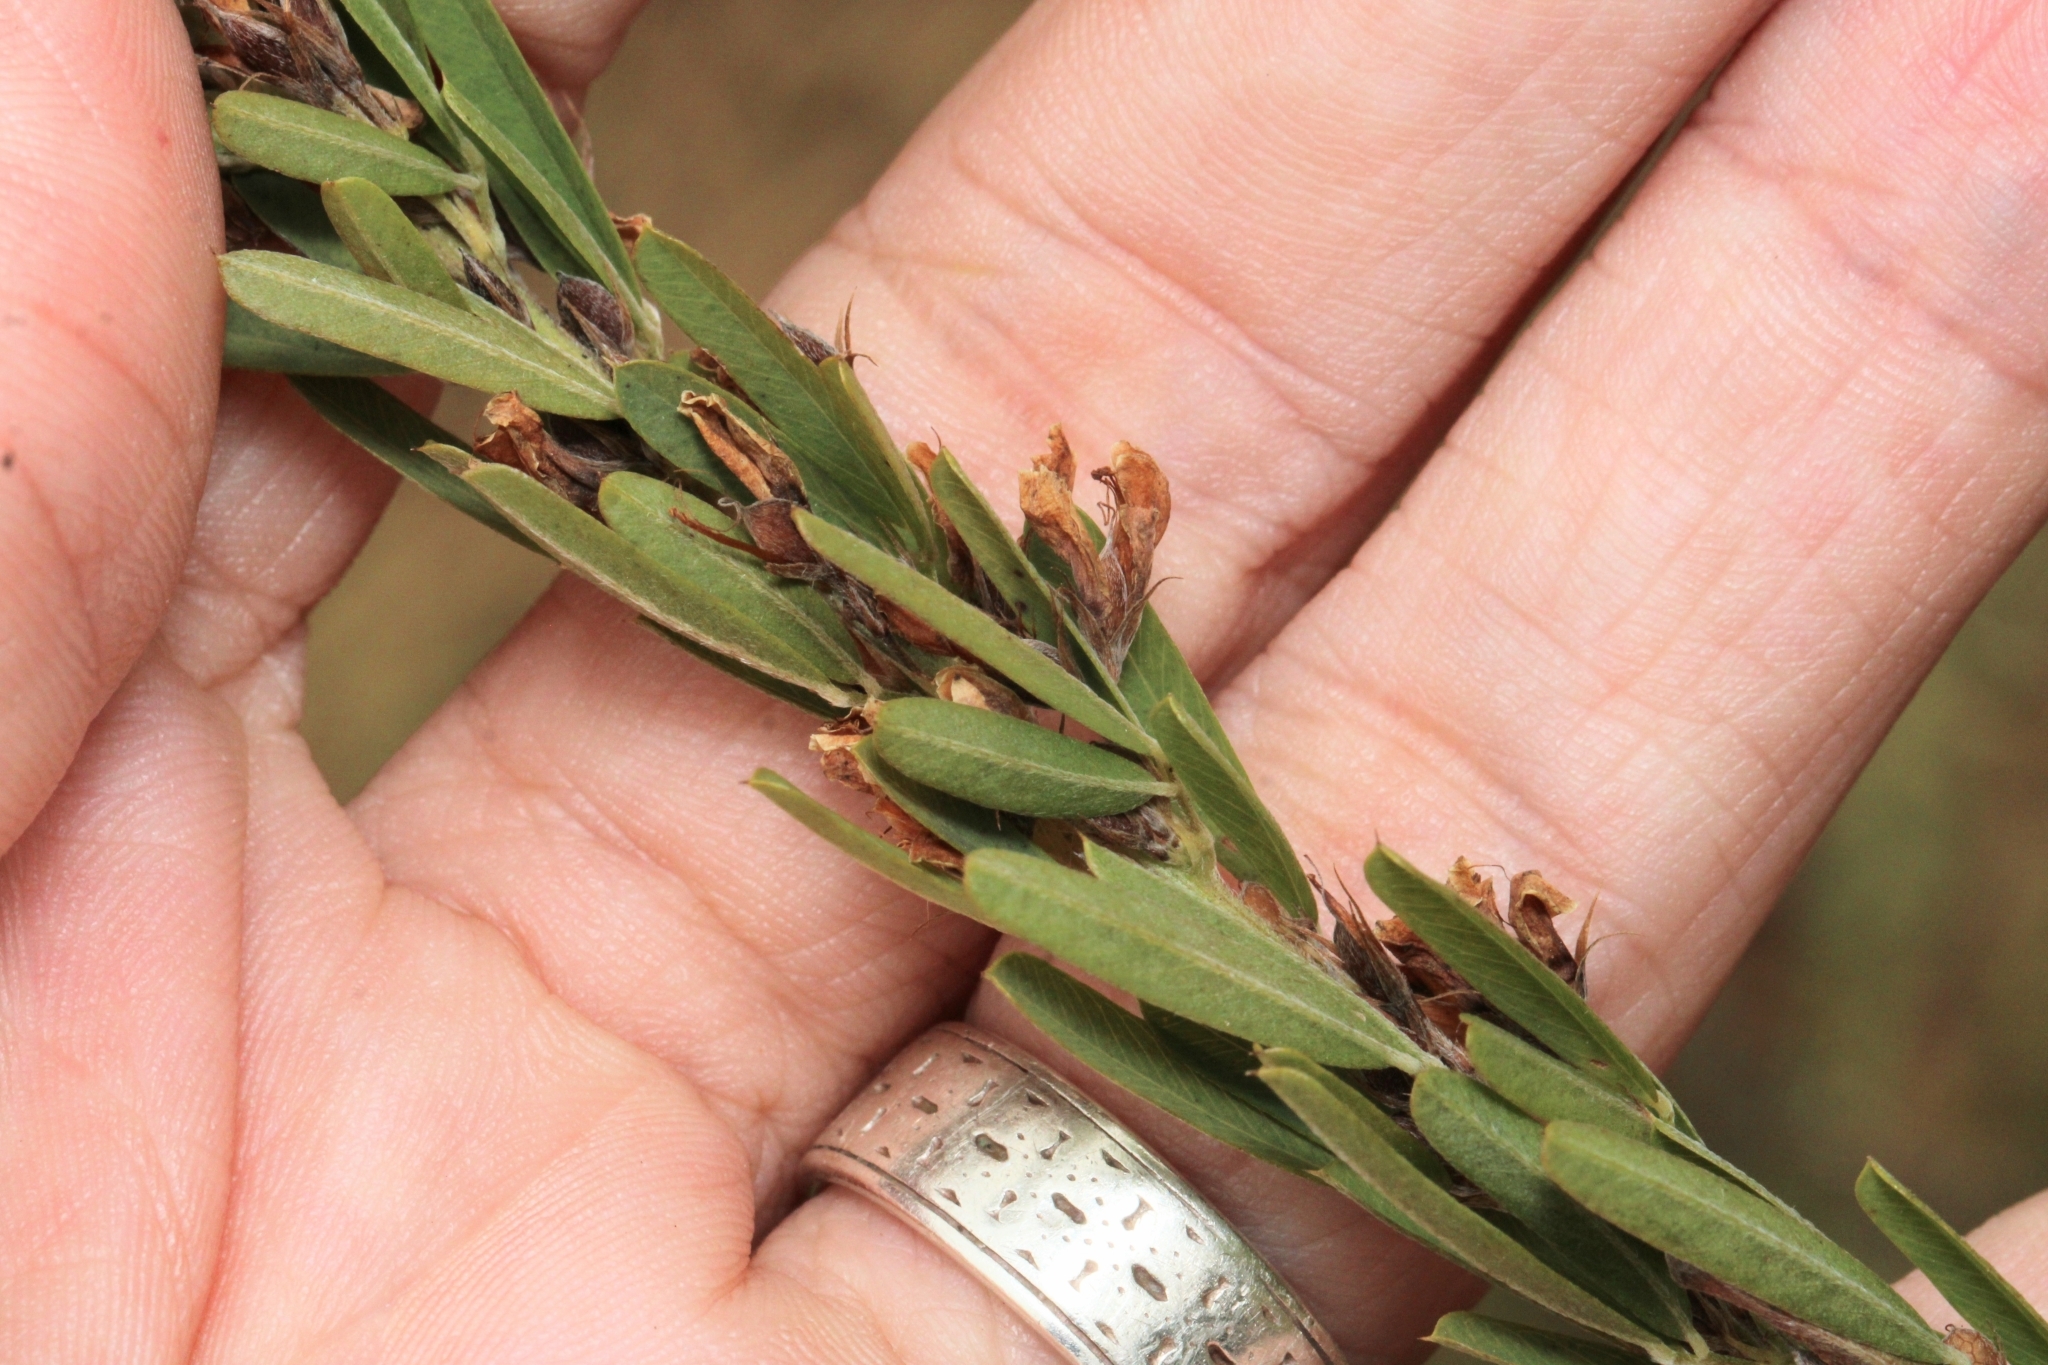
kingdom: Plantae
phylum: Tracheophyta
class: Magnoliopsida
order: Fabales
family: Fabaceae
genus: Lespedeza
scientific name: Lespedeza cuneata
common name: Chinese bush-clover
